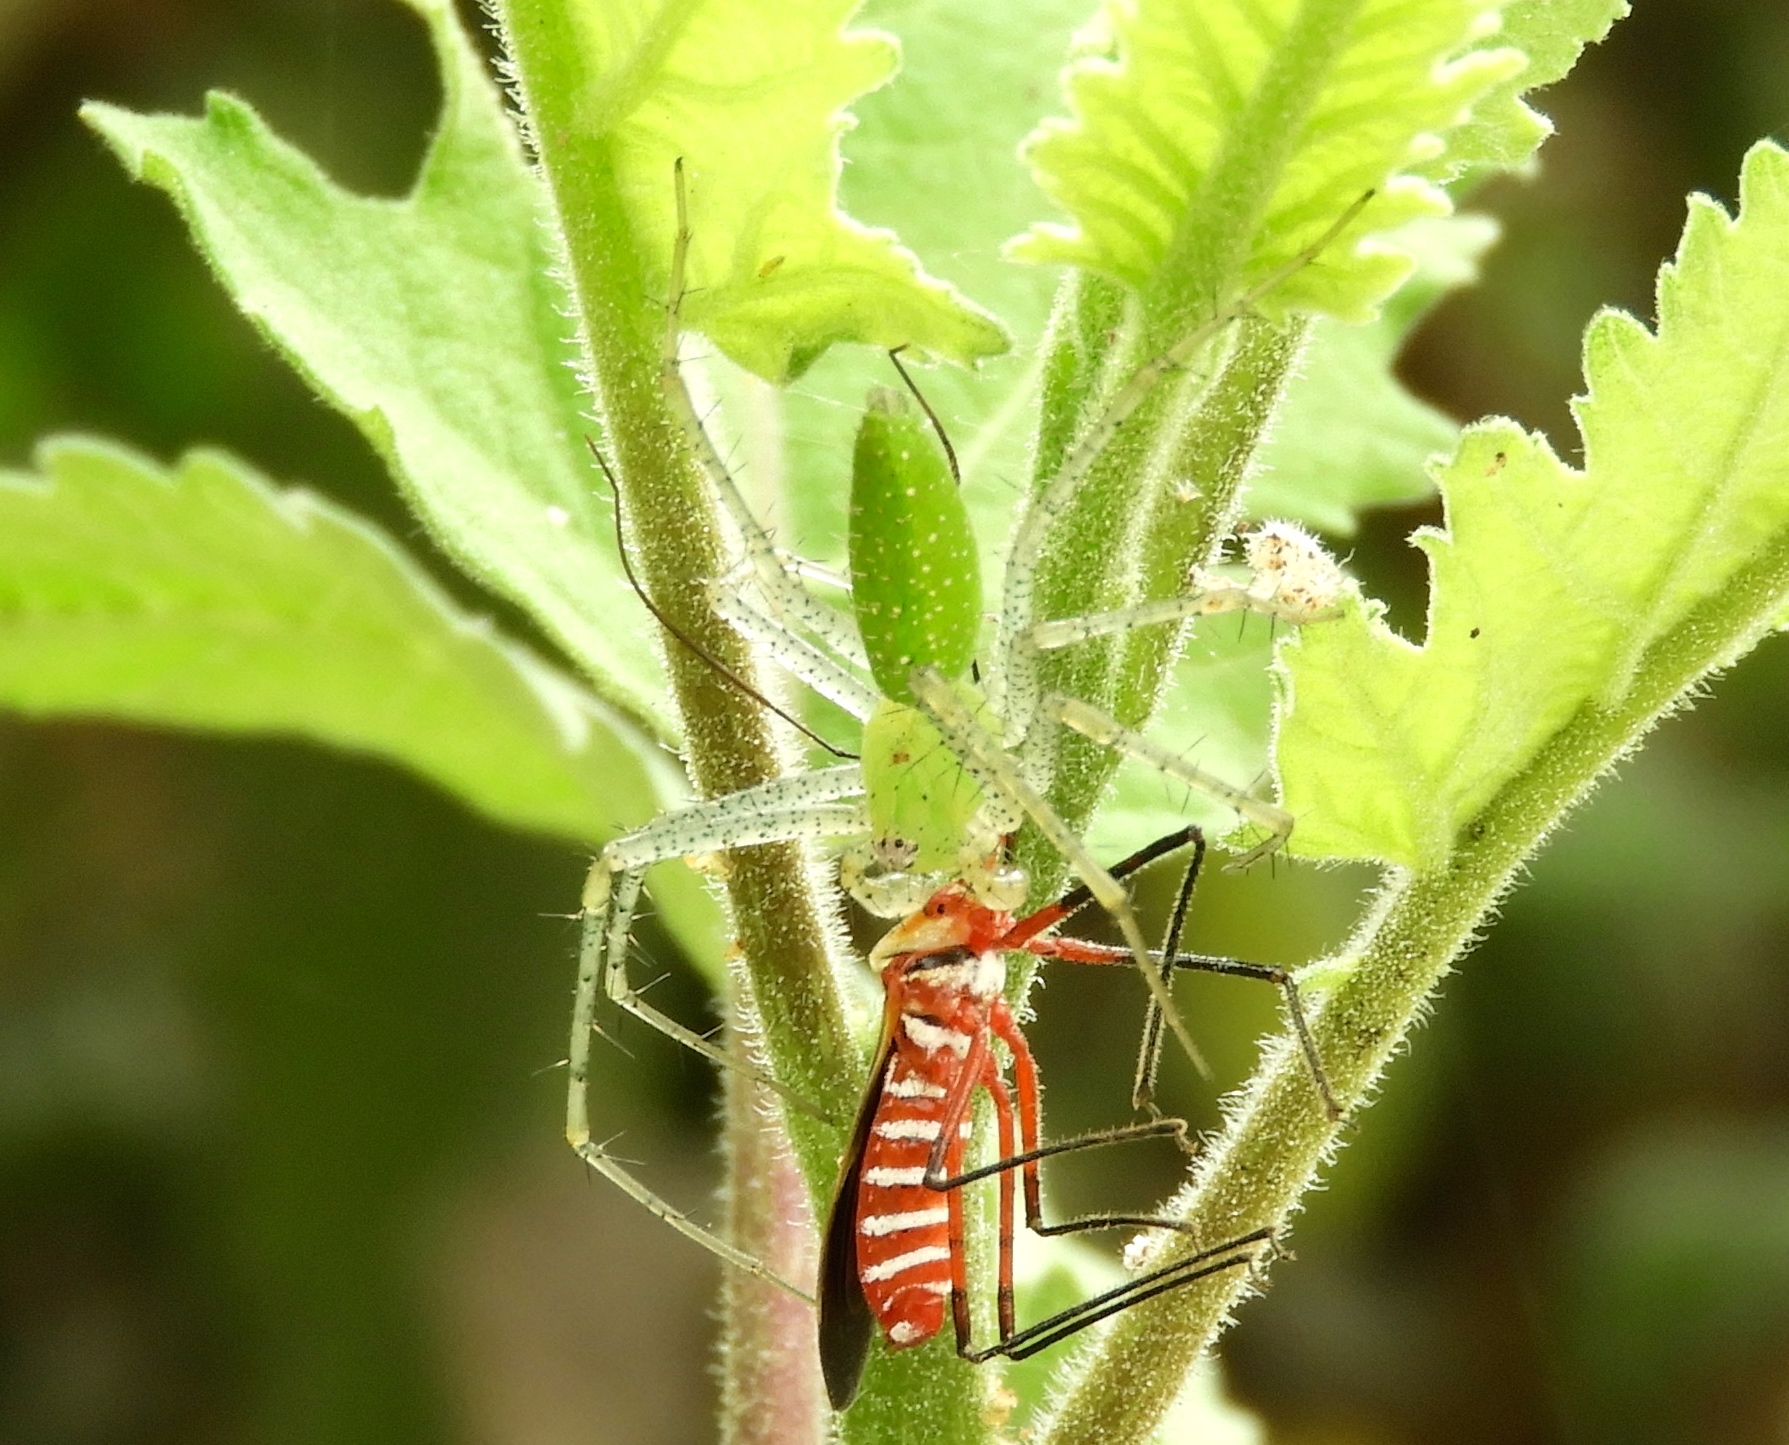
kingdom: Animalia
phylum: Arthropoda
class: Arachnida
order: Araneae
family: Oxyopidae
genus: Peucetia
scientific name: Peucetia
